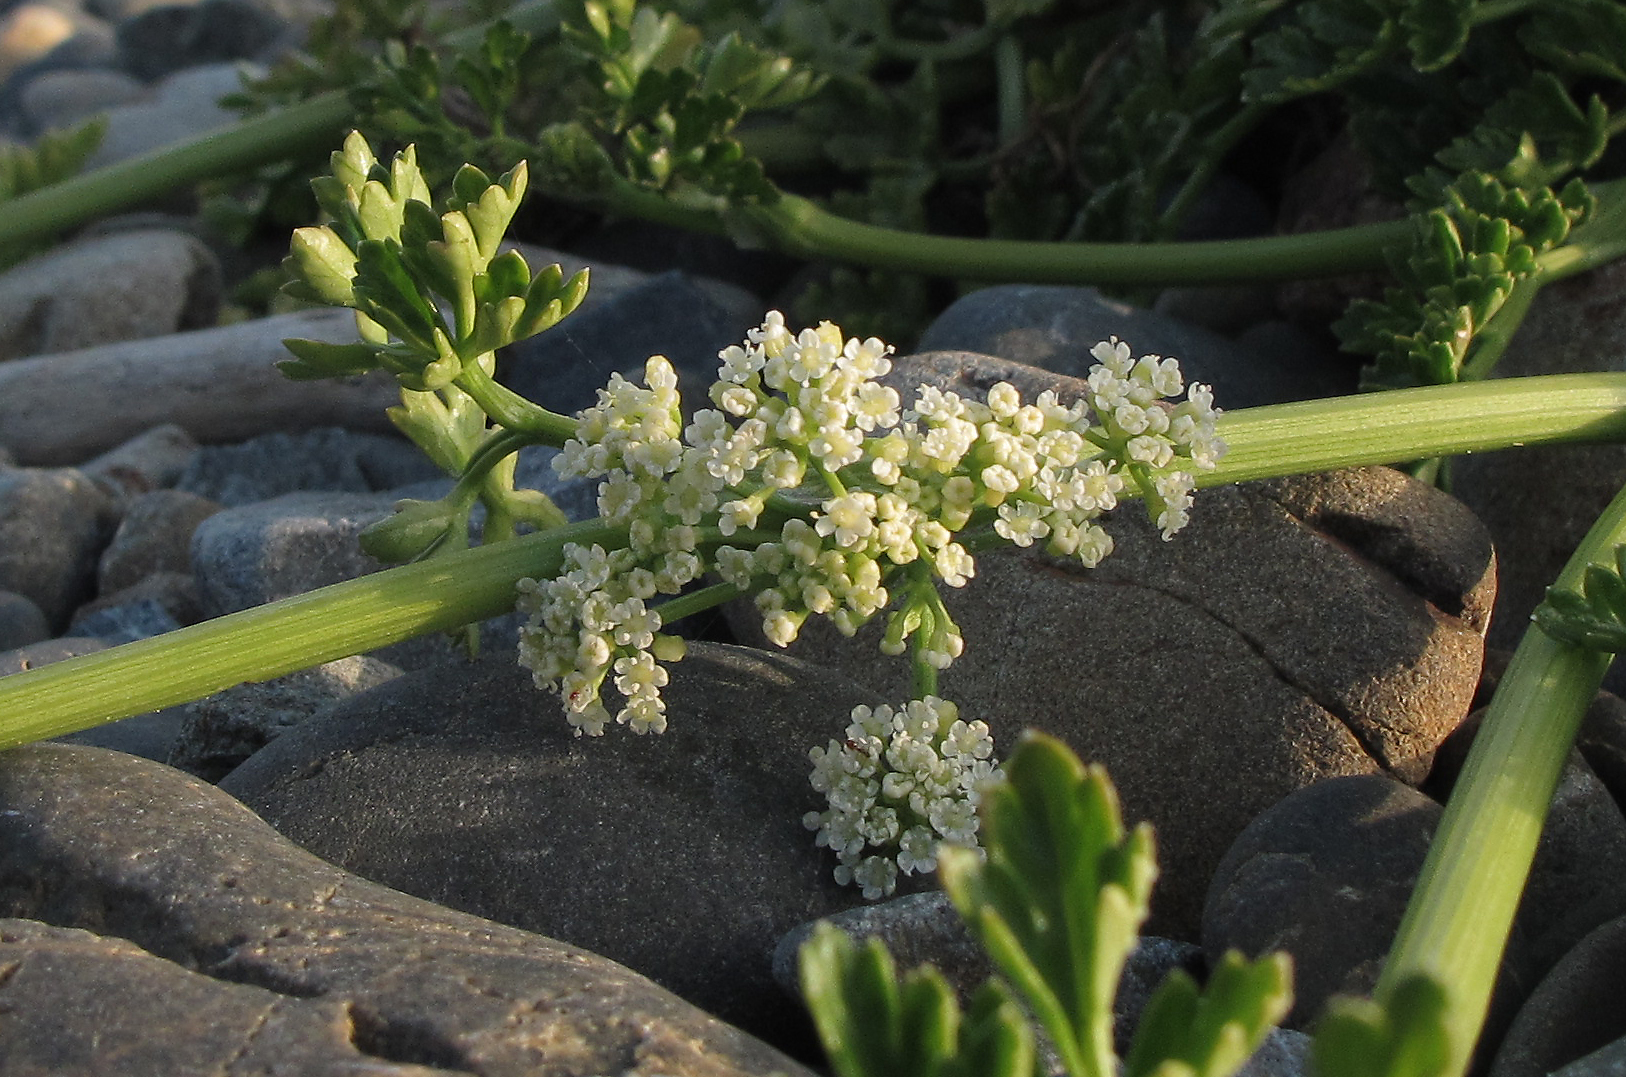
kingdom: Plantae
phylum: Tracheophyta
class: Magnoliopsida
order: Apiales
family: Apiaceae
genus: Apium
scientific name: Apium prostratum
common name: Prostrate marshwort
